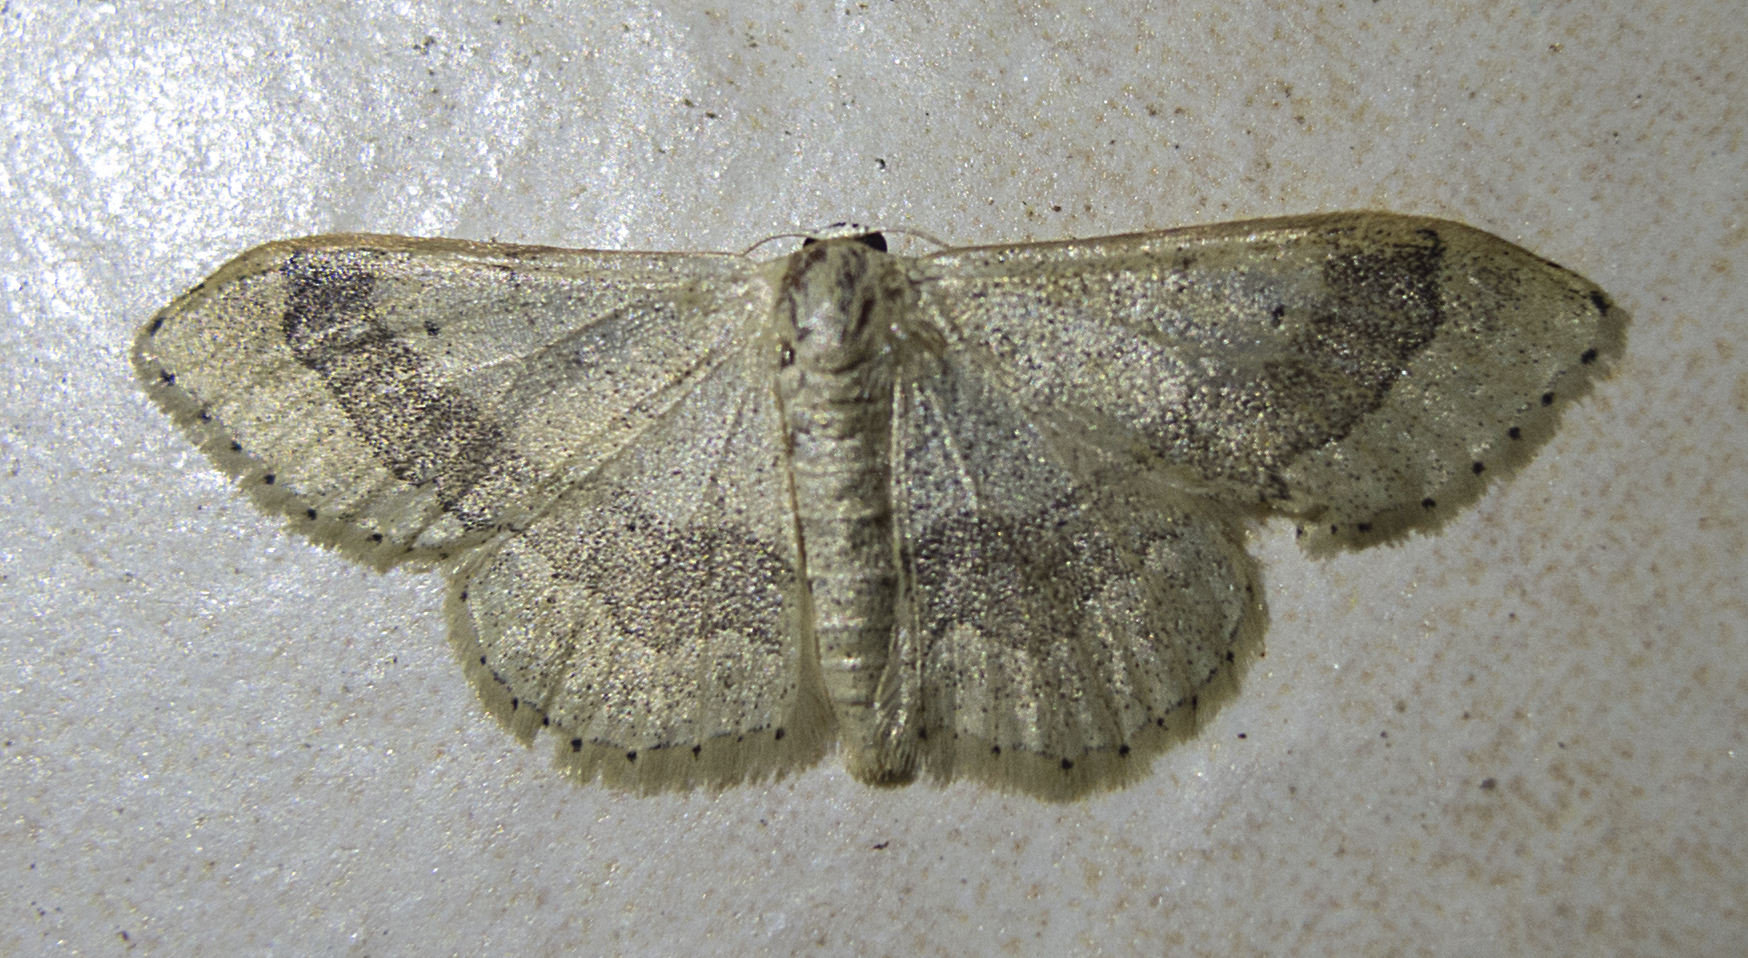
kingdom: Animalia
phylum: Arthropoda
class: Insecta
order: Lepidoptera
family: Geometridae
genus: Idaea
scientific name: Idaea aversata
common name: Riband wave
